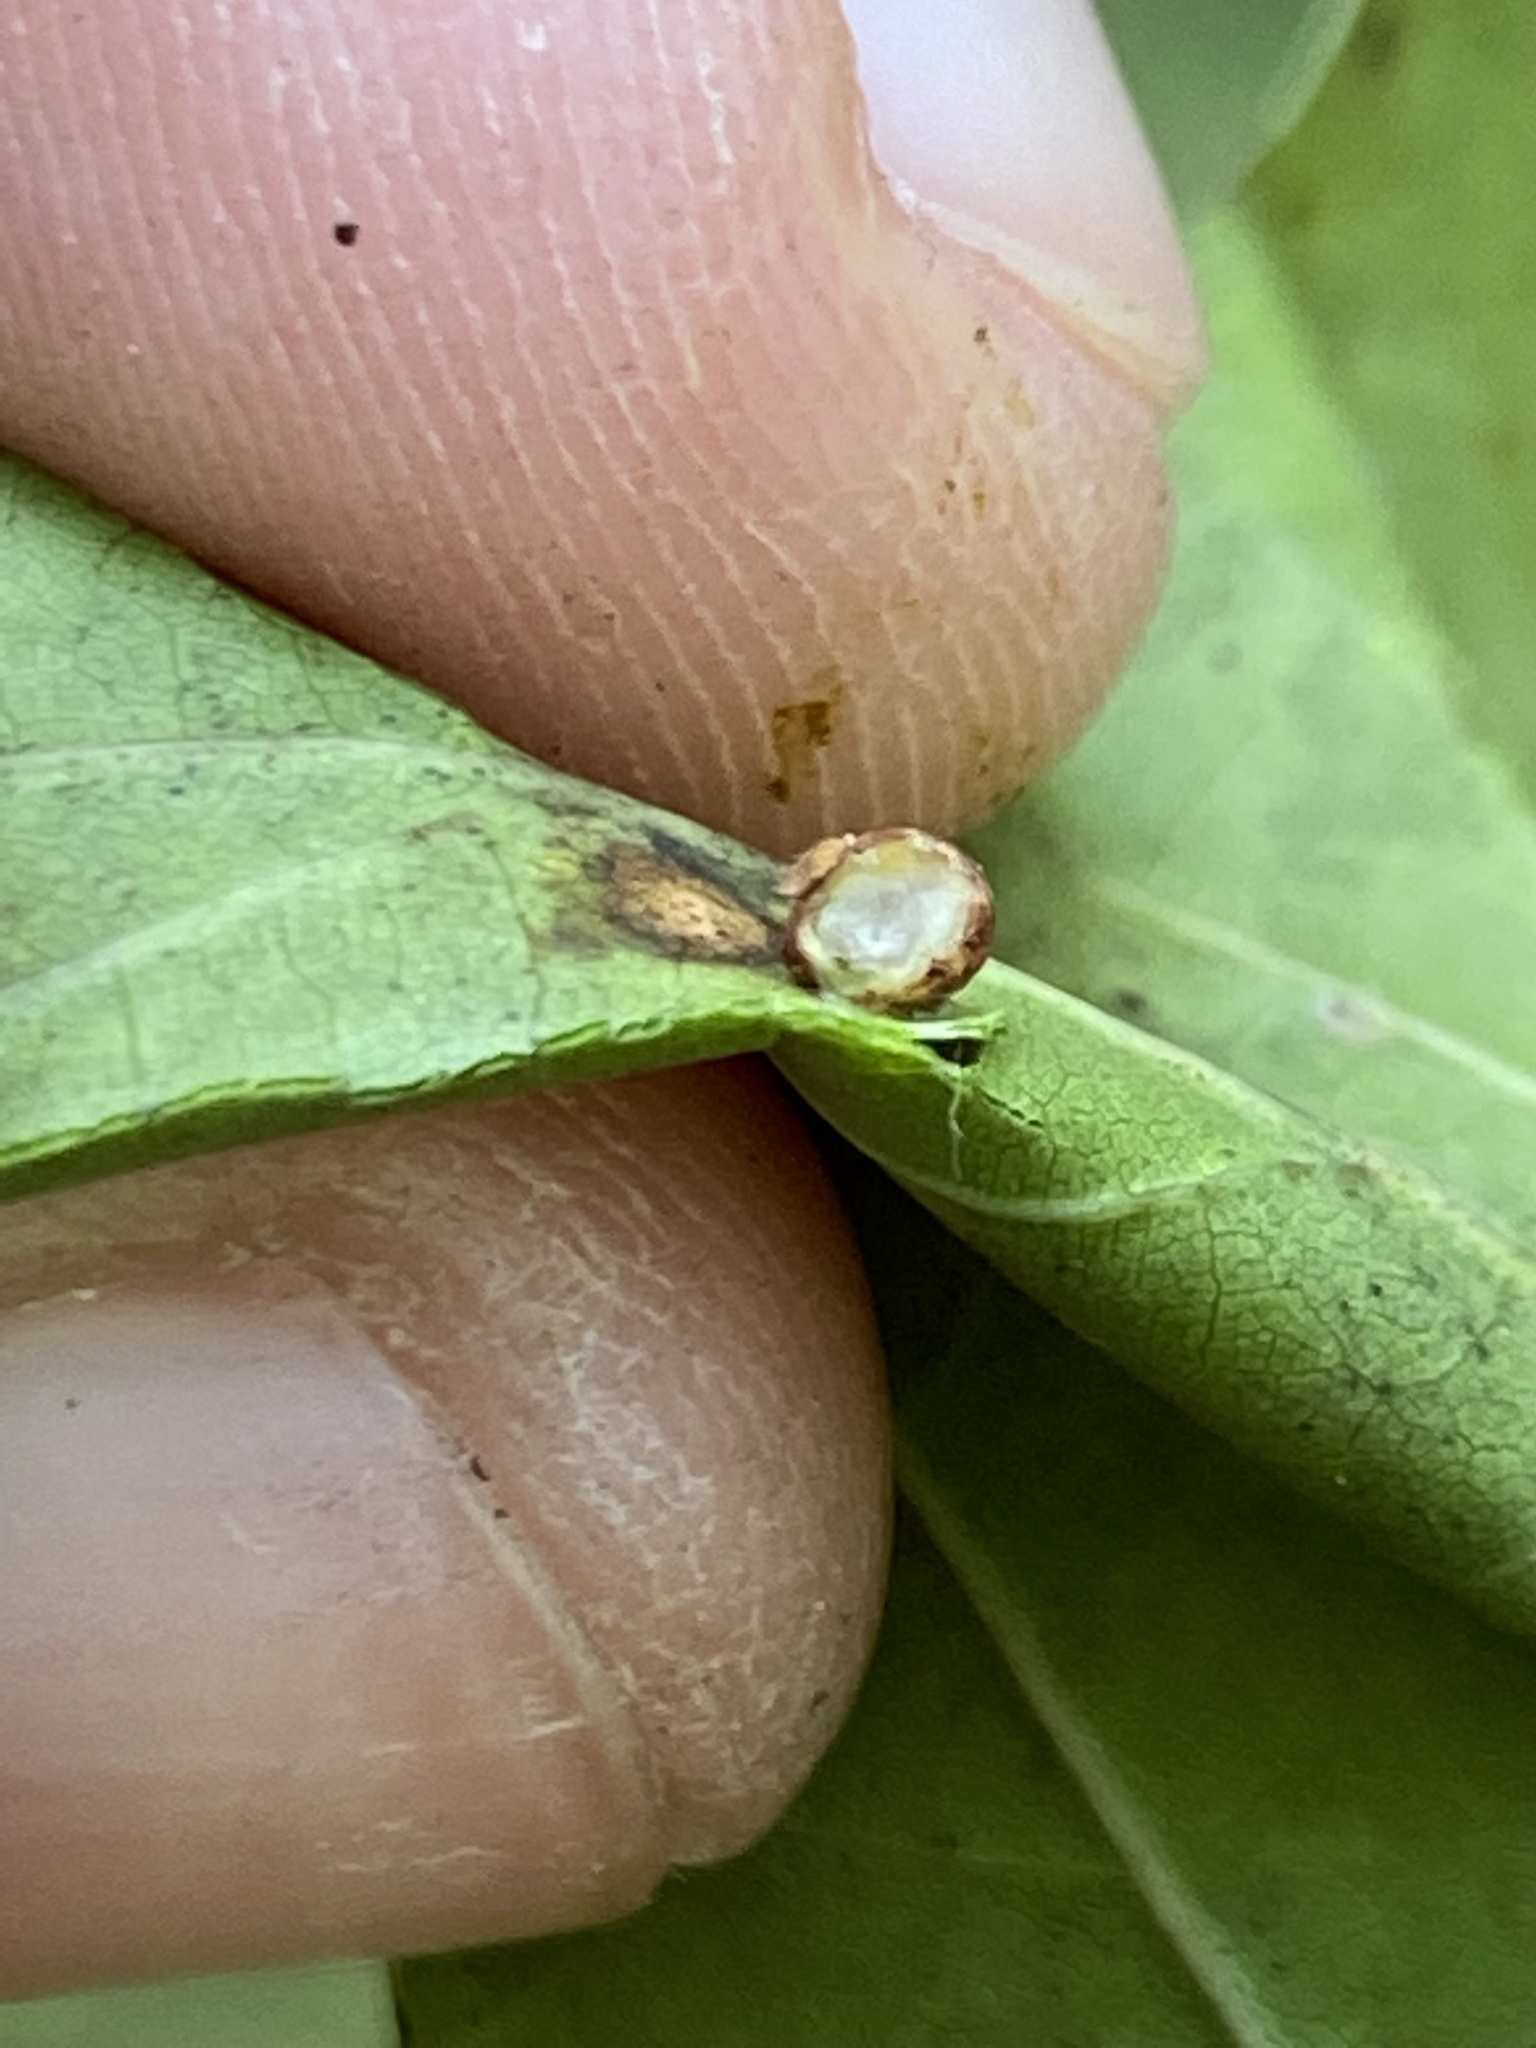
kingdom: Animalia
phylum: Arthropoda
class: Insecta
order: Diptera
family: Cecidomyiidae
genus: Polystepha
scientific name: Polystepha globosa
